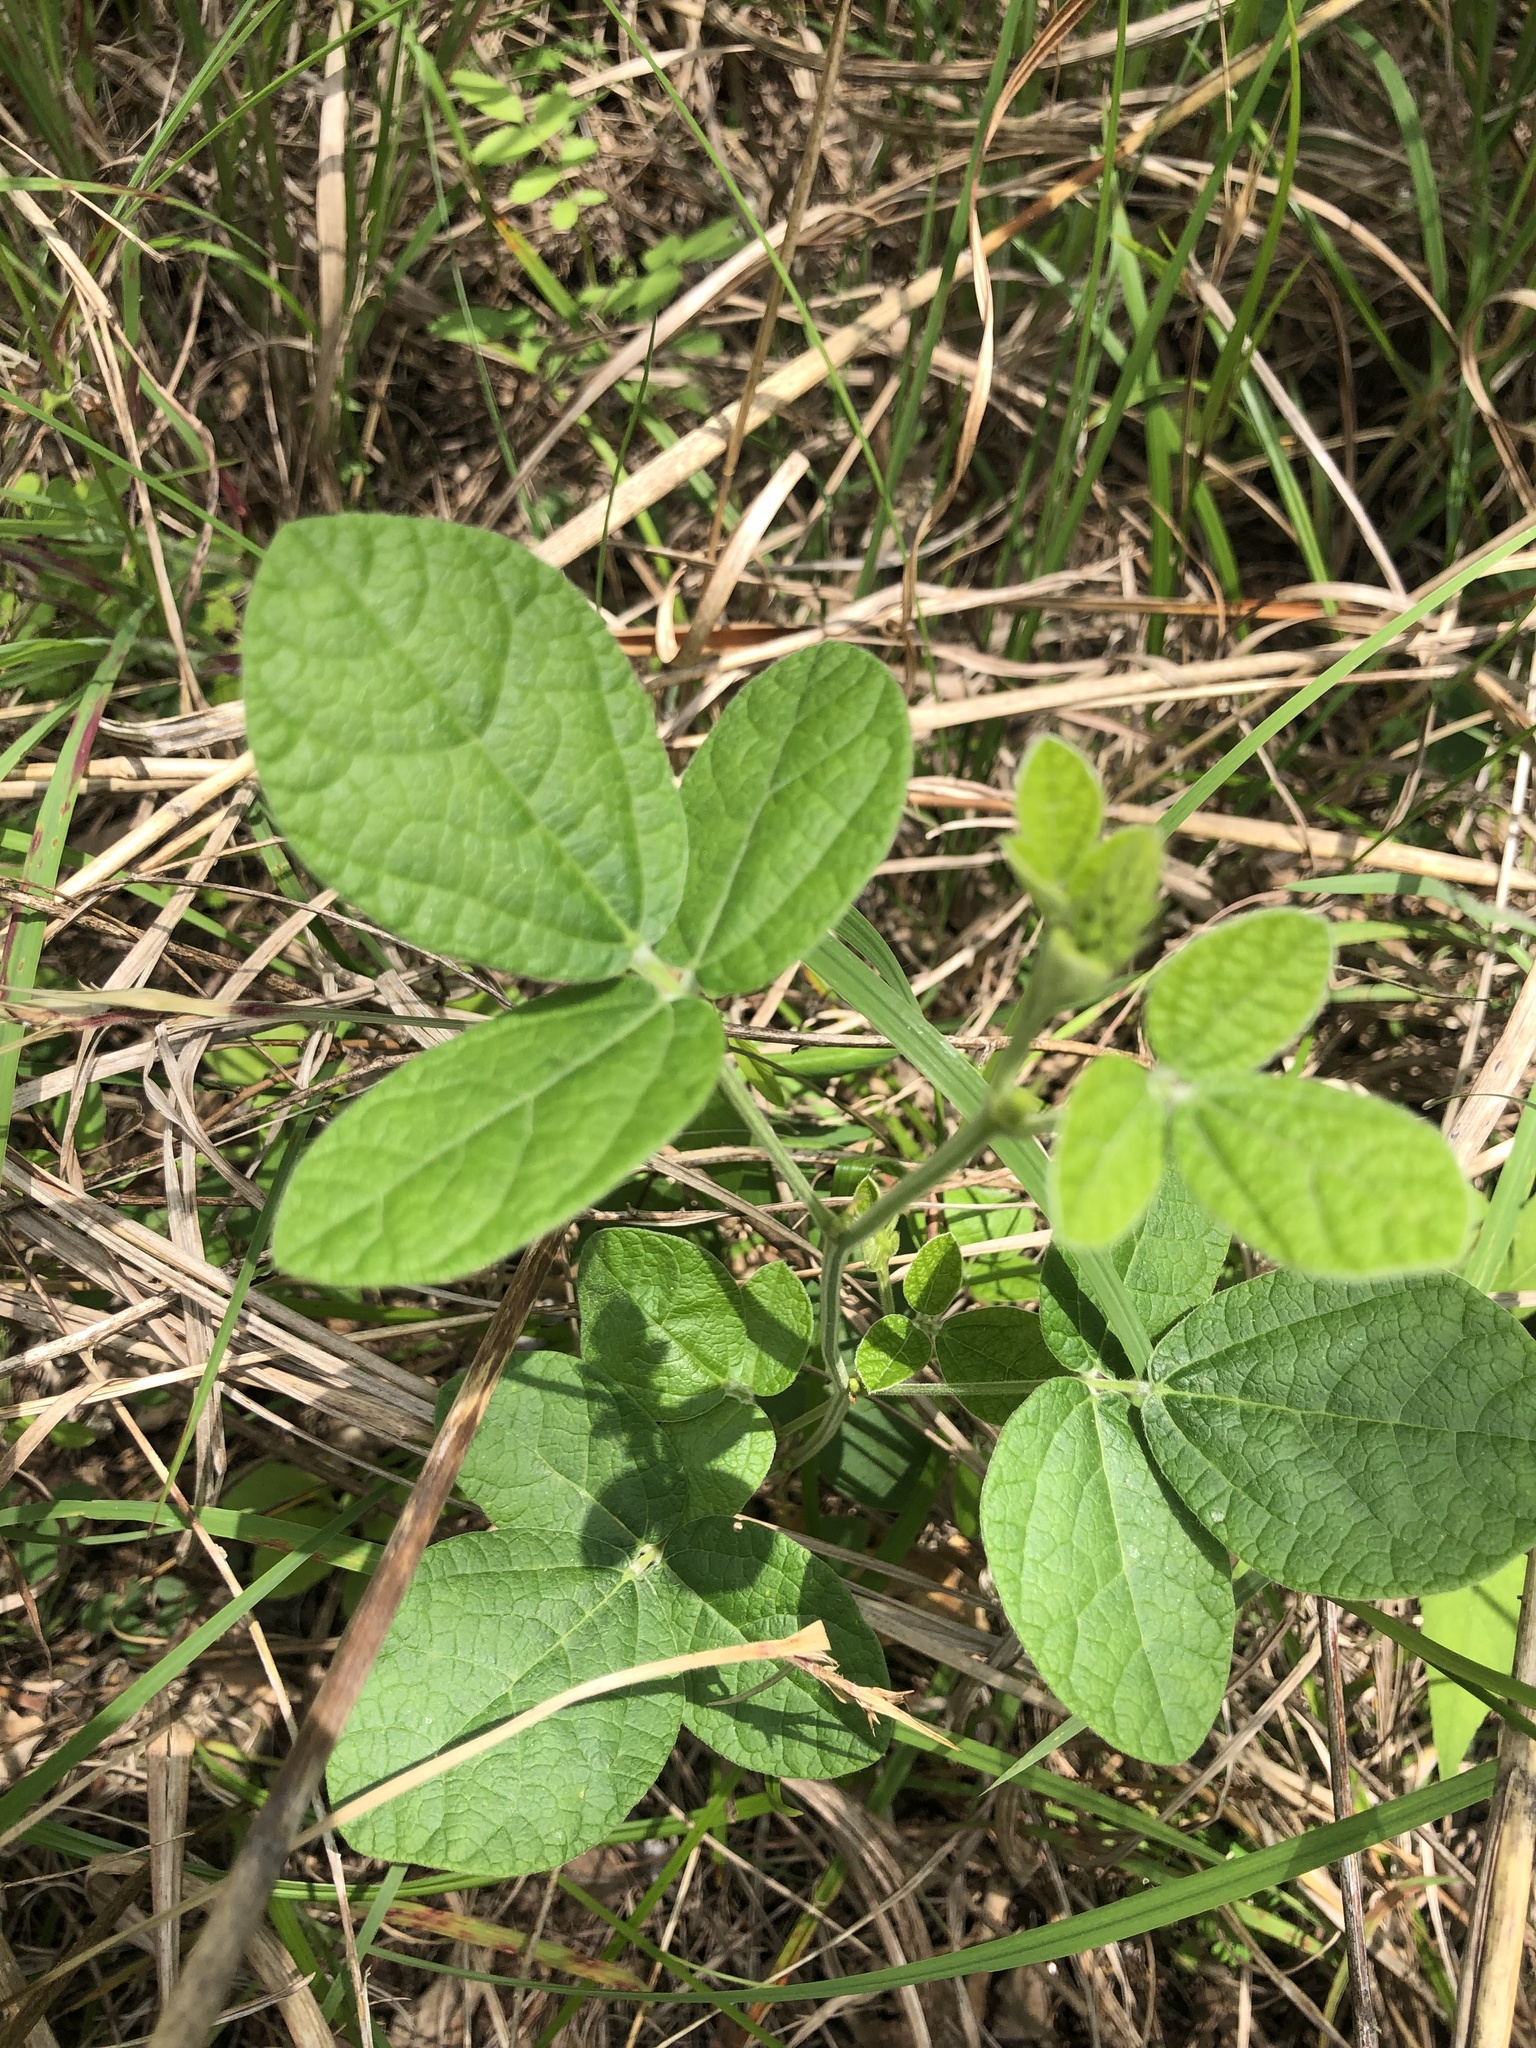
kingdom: Plantae
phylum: Tracheophyta
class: Magnoliopsida
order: Fabales
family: Fabaceae
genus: Rhynchosia
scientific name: Rhynchosia tomentosa
